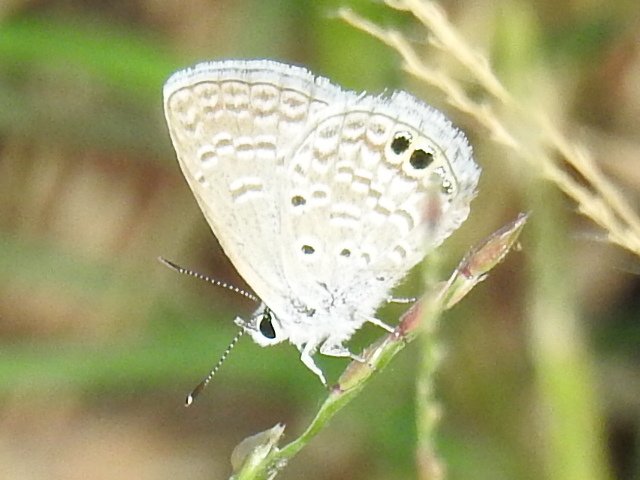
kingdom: Animalia
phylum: Arthropoda
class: Insecta
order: Lepidoptera
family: Lycaenidae
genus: Hemiargus
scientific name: Hemiargus ceraunus
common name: Ceraunus blue
